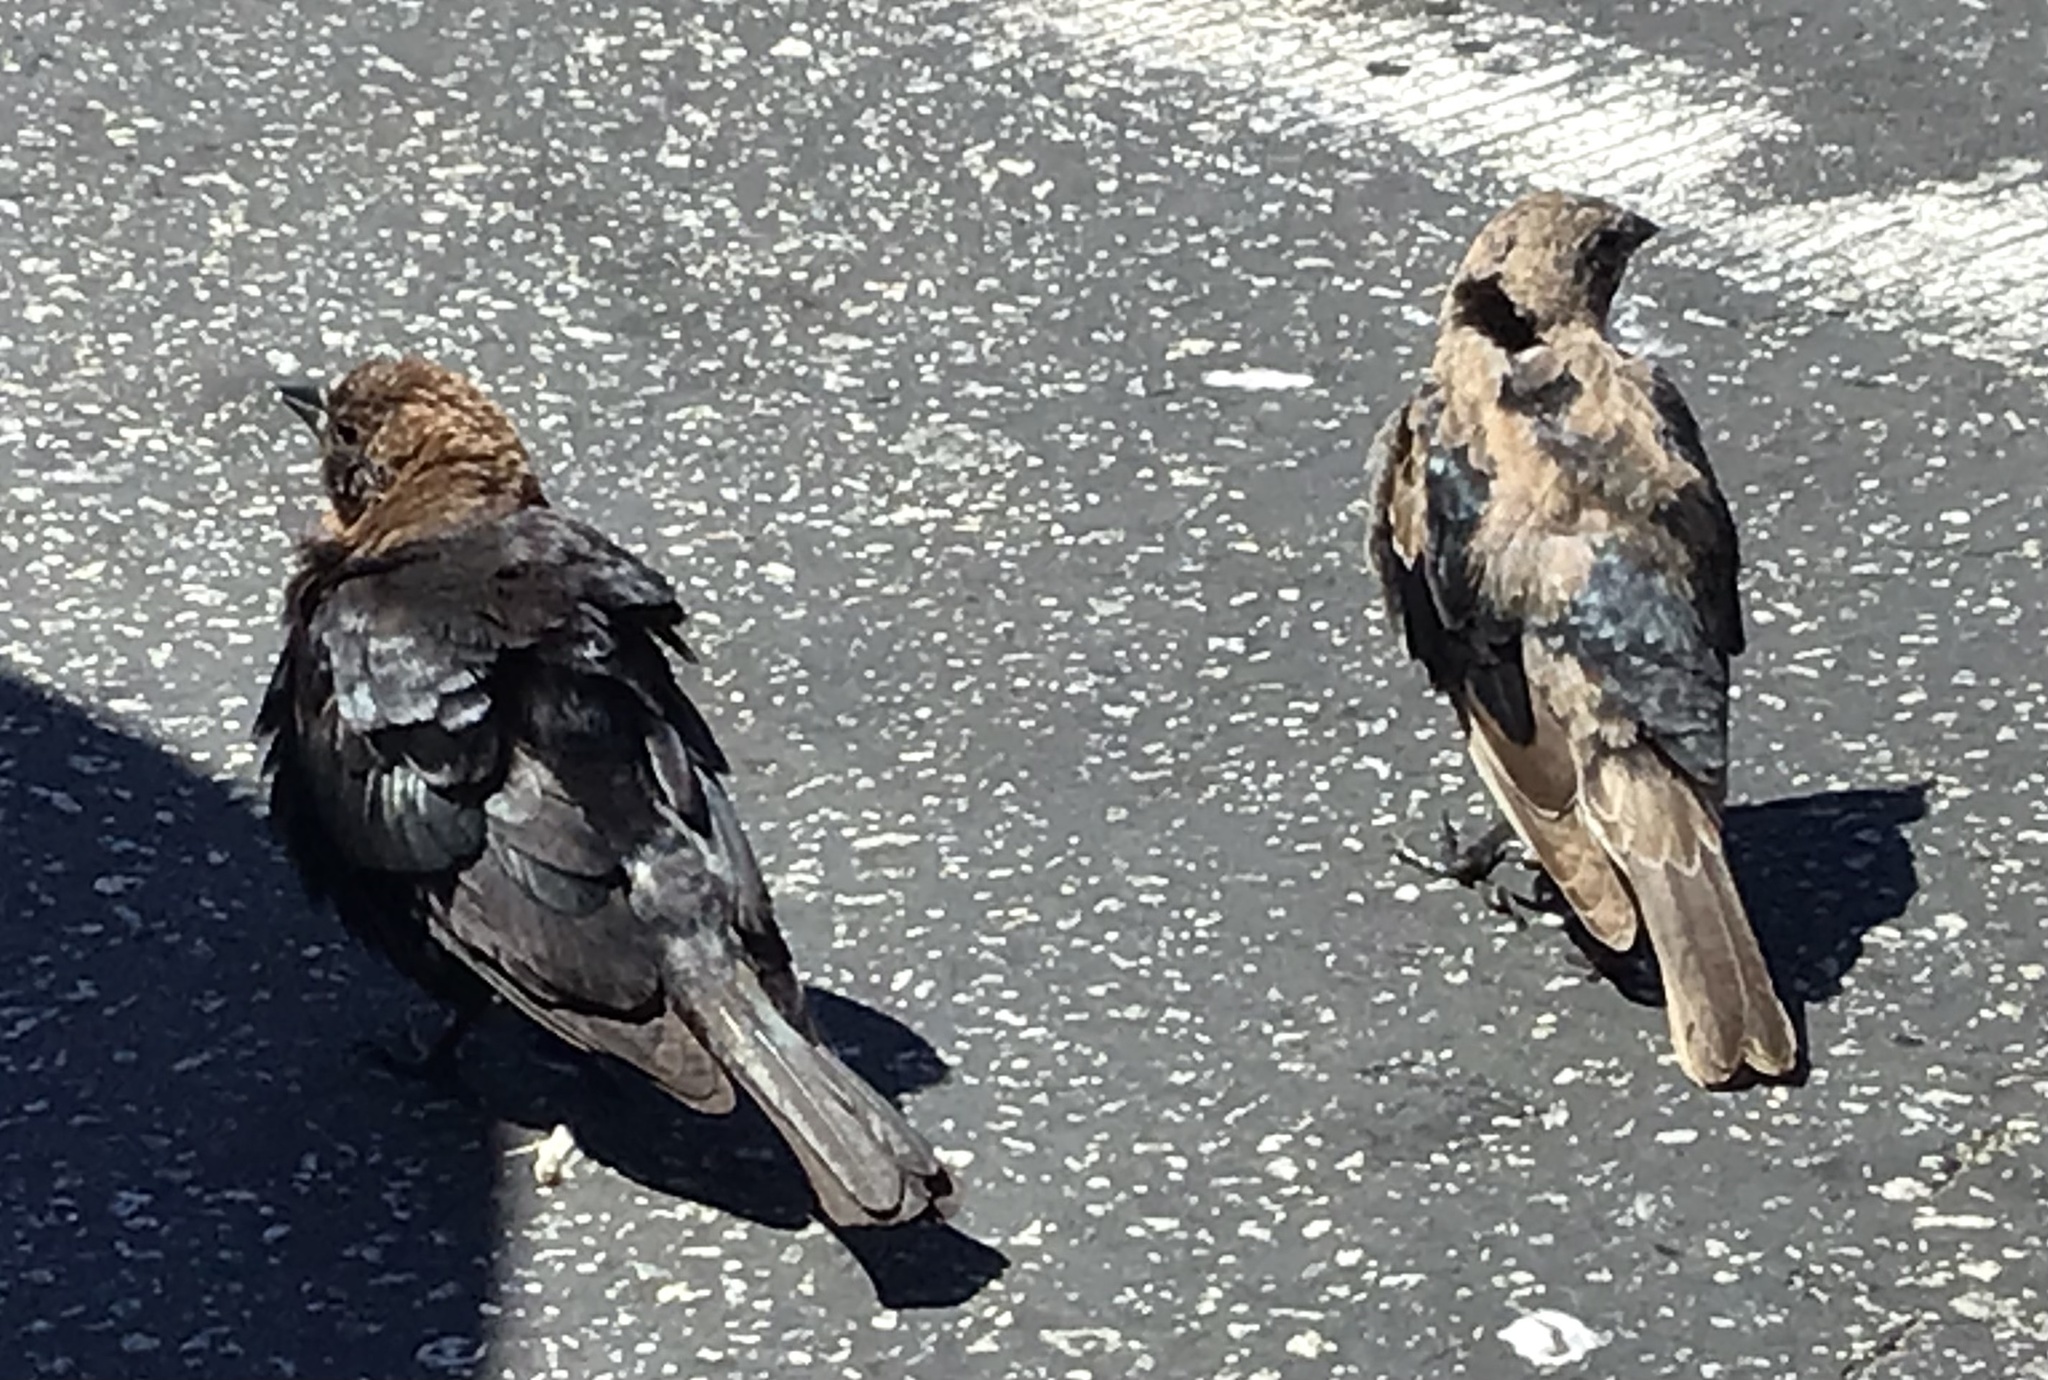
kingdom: Animalia
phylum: Chordata
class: Aves
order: Passeriformes
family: Icteridae
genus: Molothrus
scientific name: Molothrus ater
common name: Brown-headed cowbird
